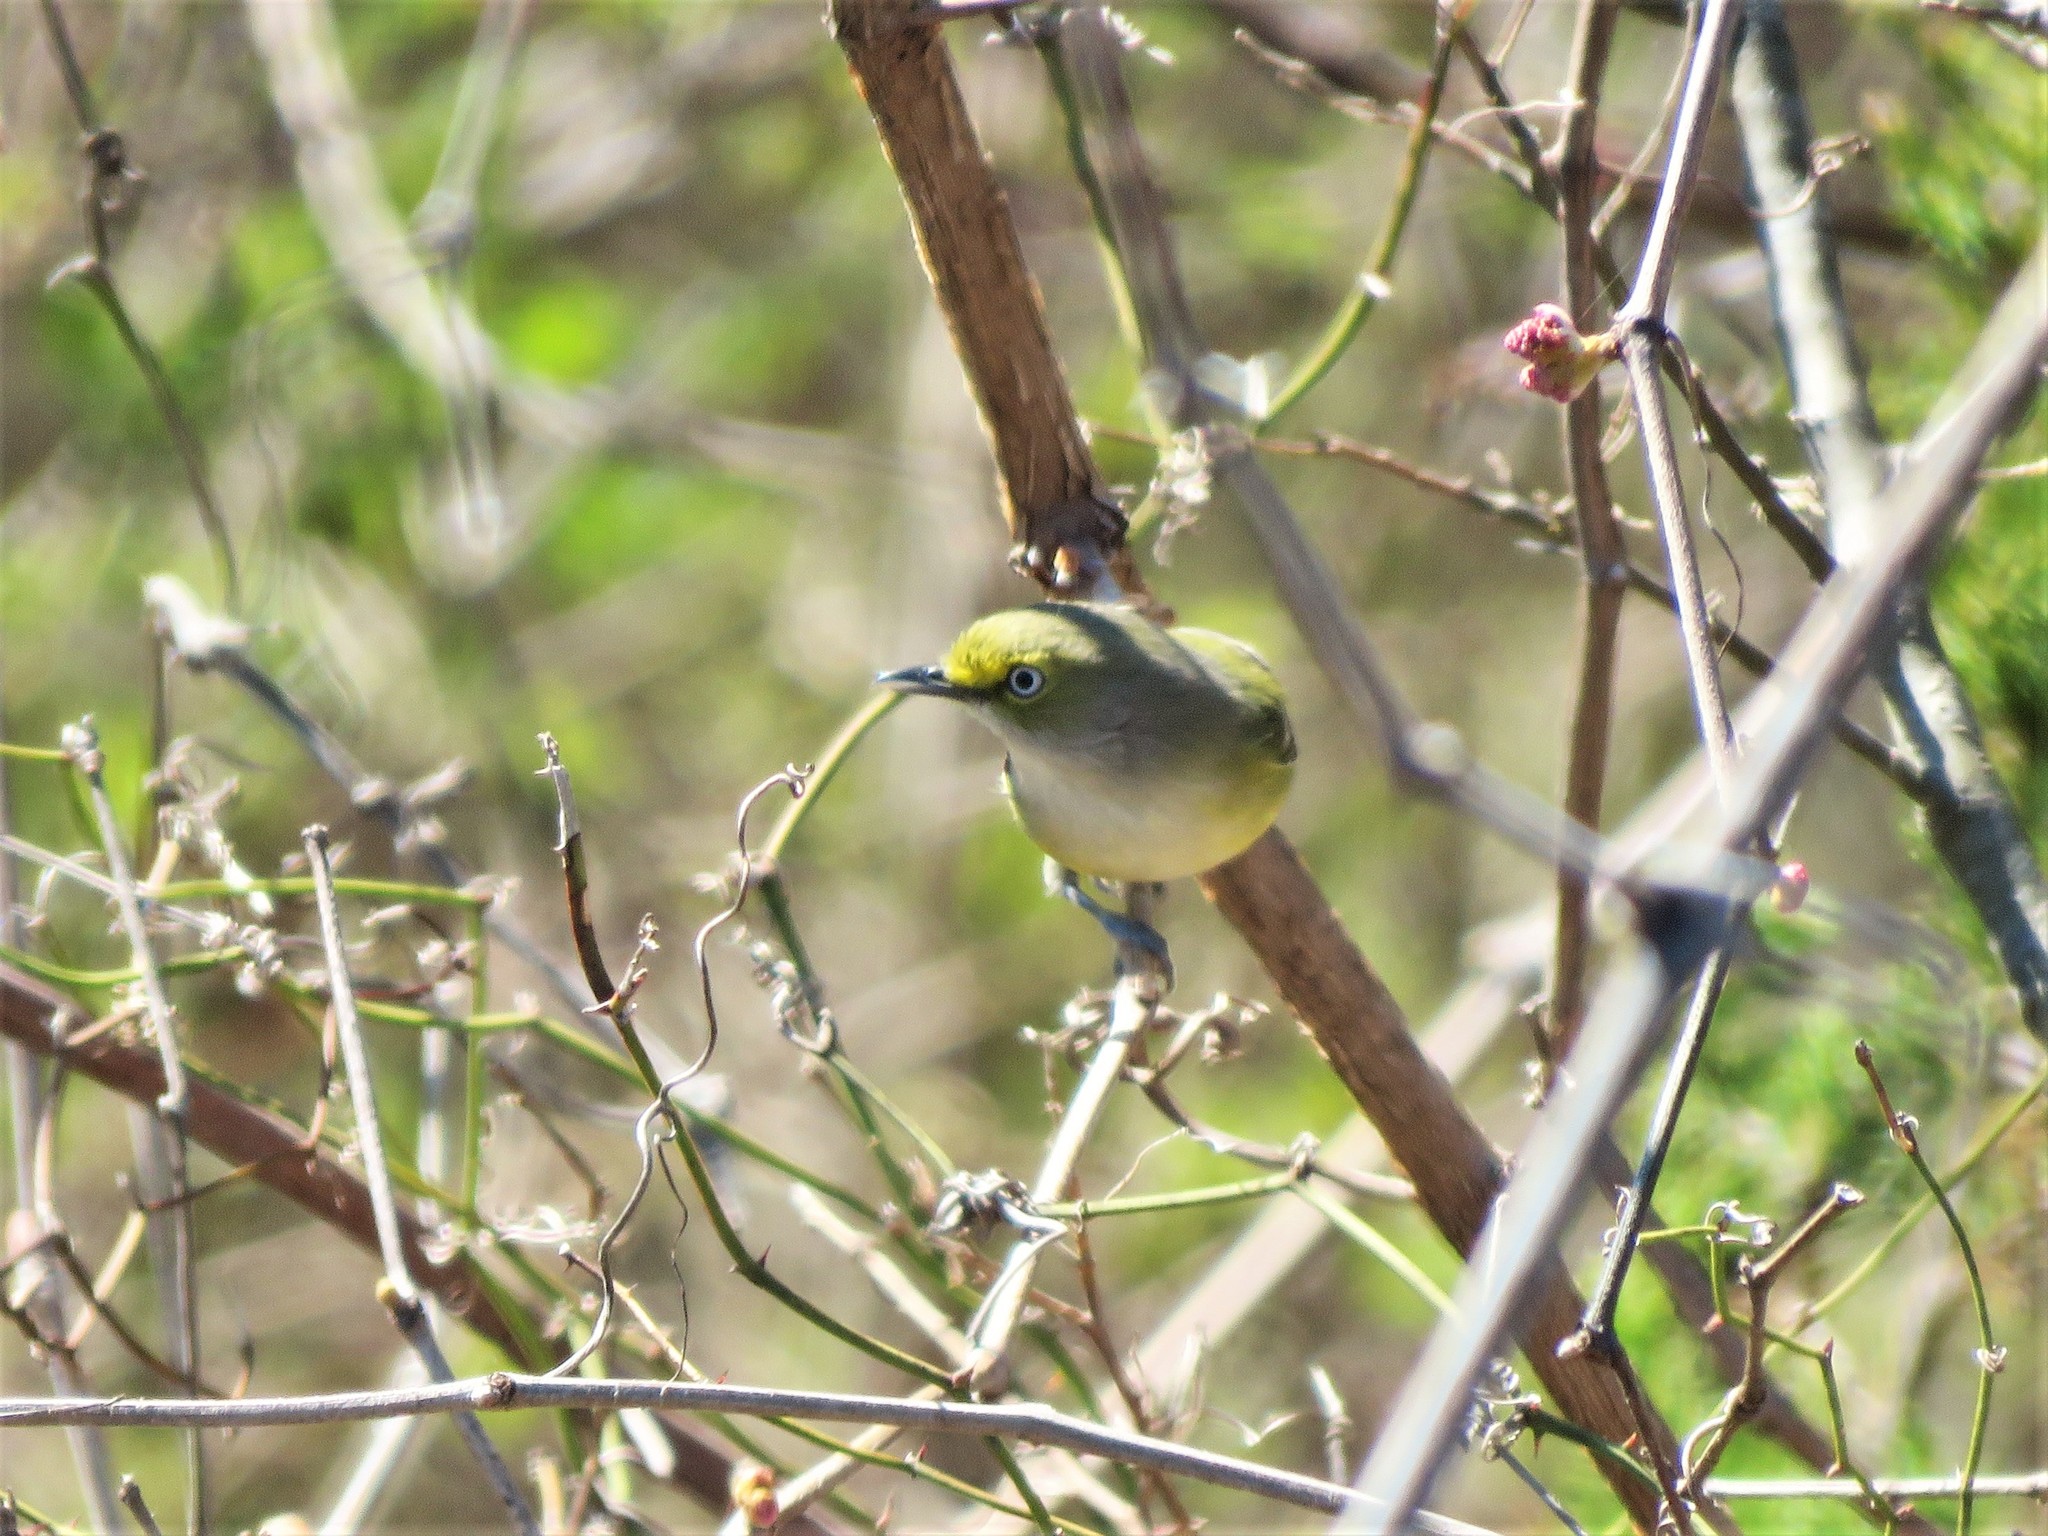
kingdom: Animalia
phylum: Chordata
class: Aves
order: Passeriformes
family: Vireonidae
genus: Vireo
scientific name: Vireo griseus
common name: White-eyed vireo
